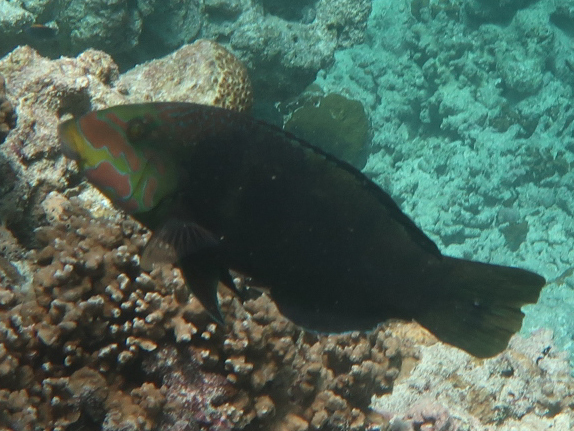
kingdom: Animalia
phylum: Chordata
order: Perciformes
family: Labridae
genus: Hemigymnus
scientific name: Hemigymnus fasciatus
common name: Barred thicklip
